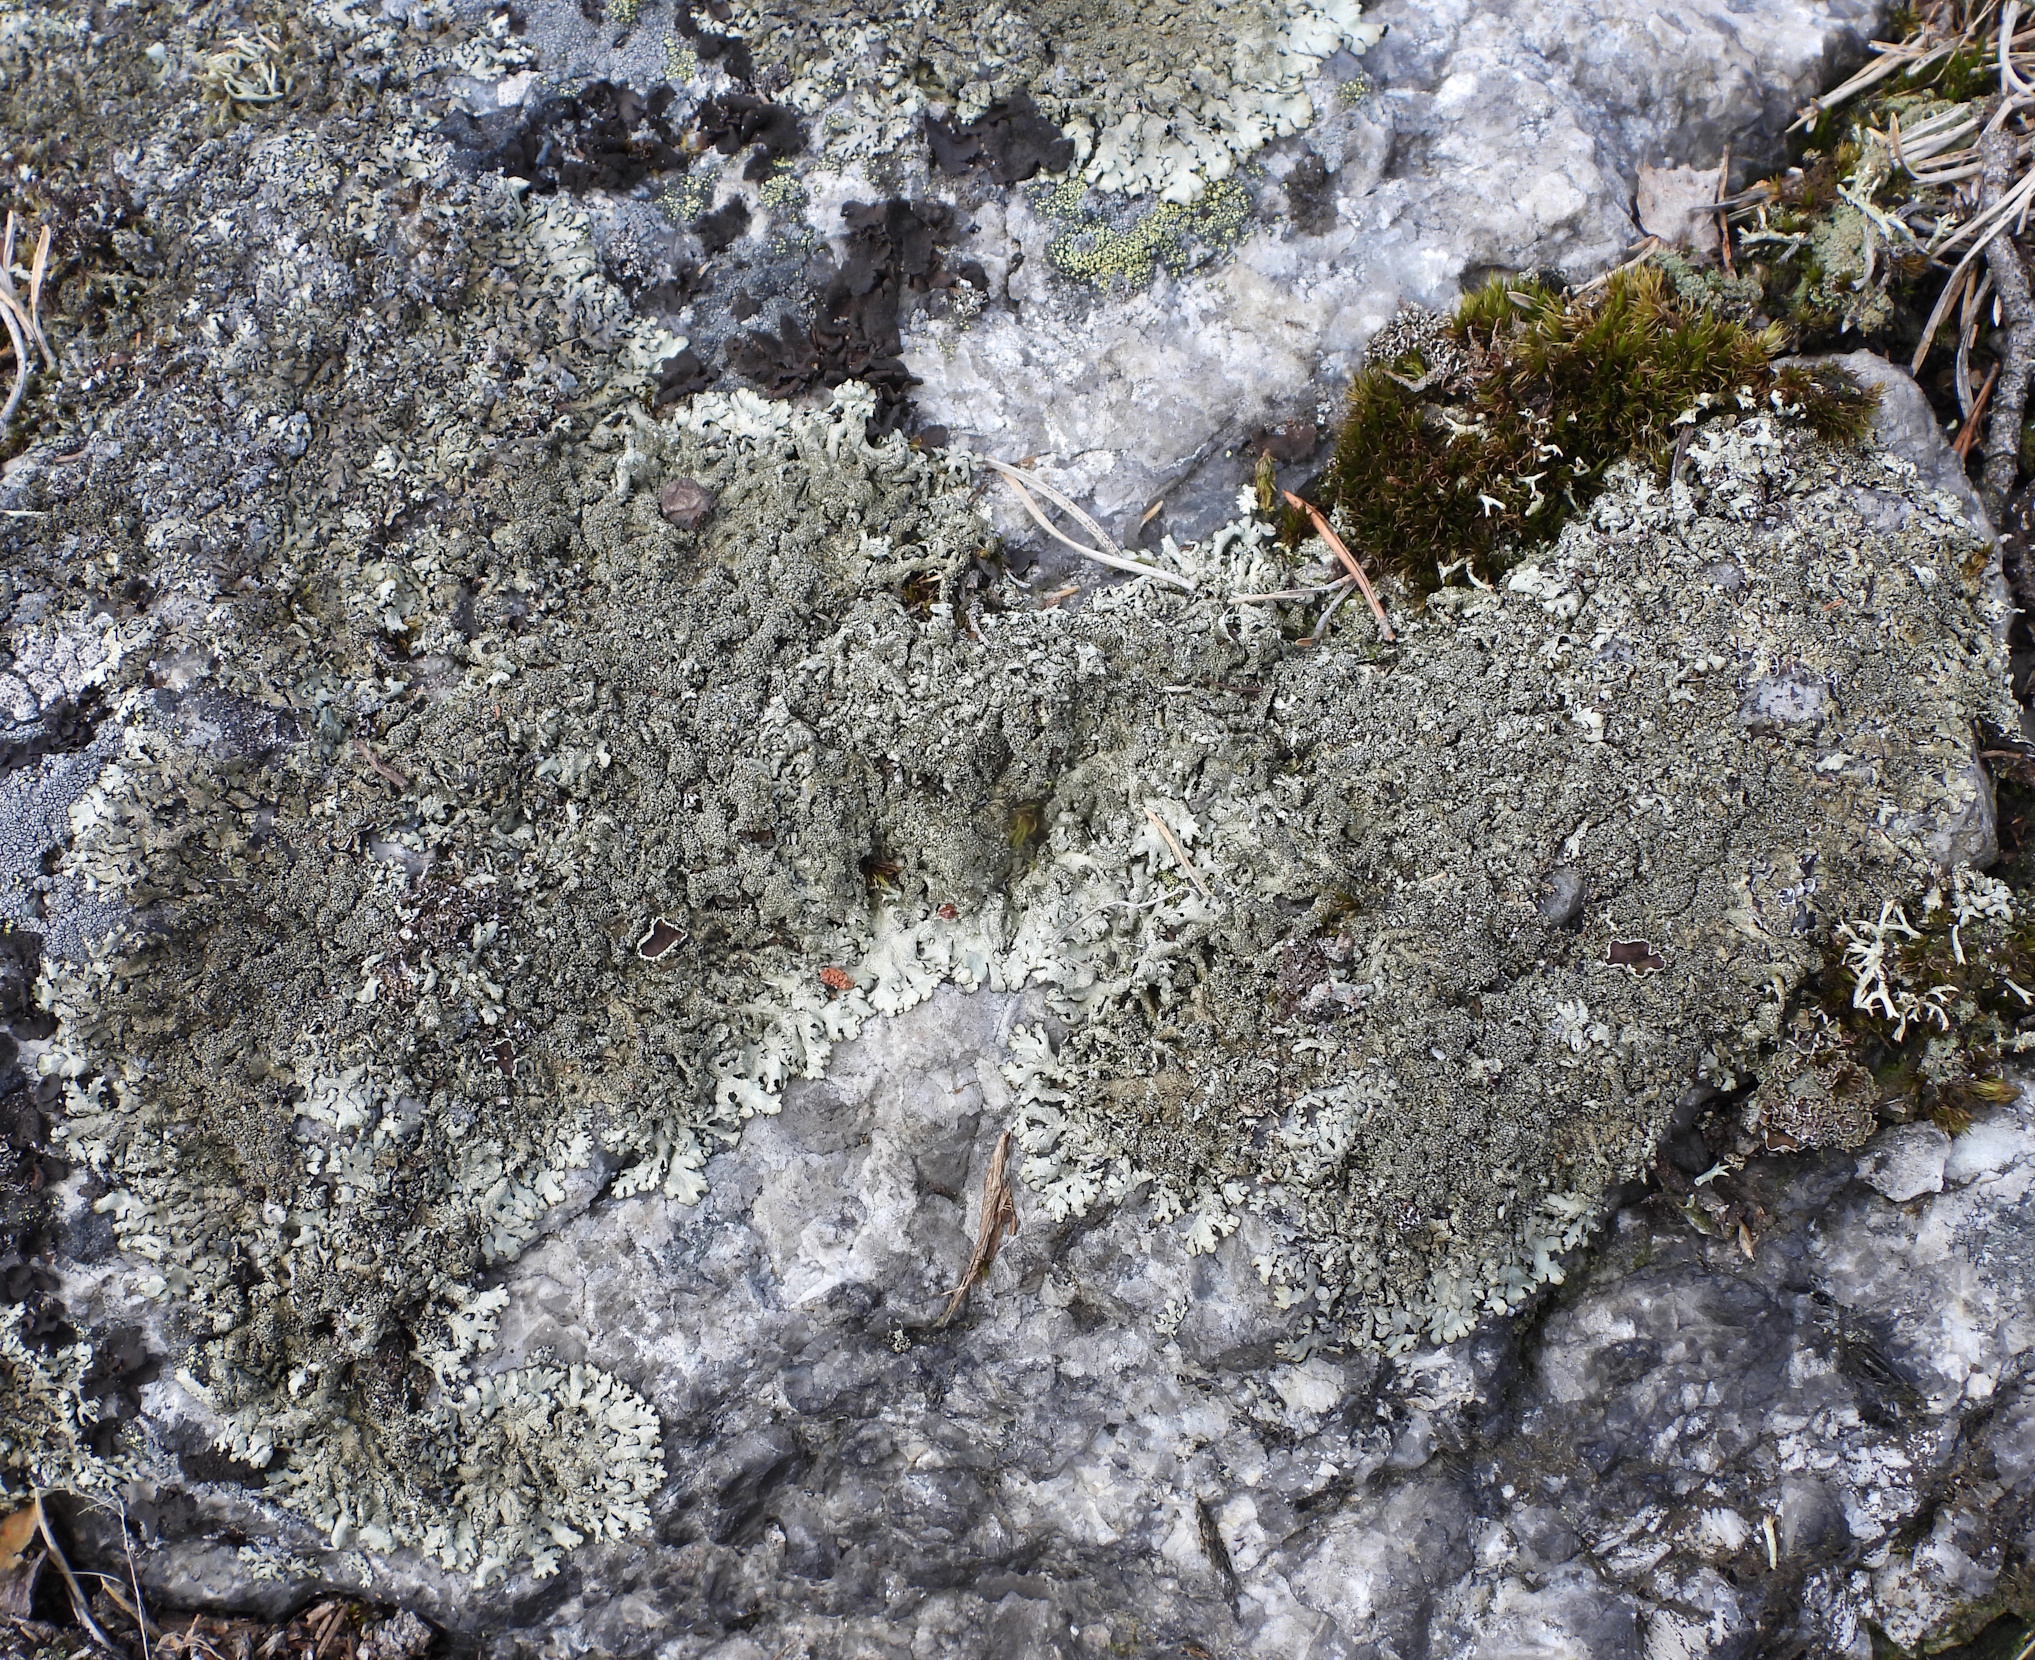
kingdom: Fungi
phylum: Ascomycota
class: Lecanoromycetes
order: Lecanorales
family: Parmeliaceae
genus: Xanthoparmelia
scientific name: Xanthoparmelia conspersa
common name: Peppered rock shield
